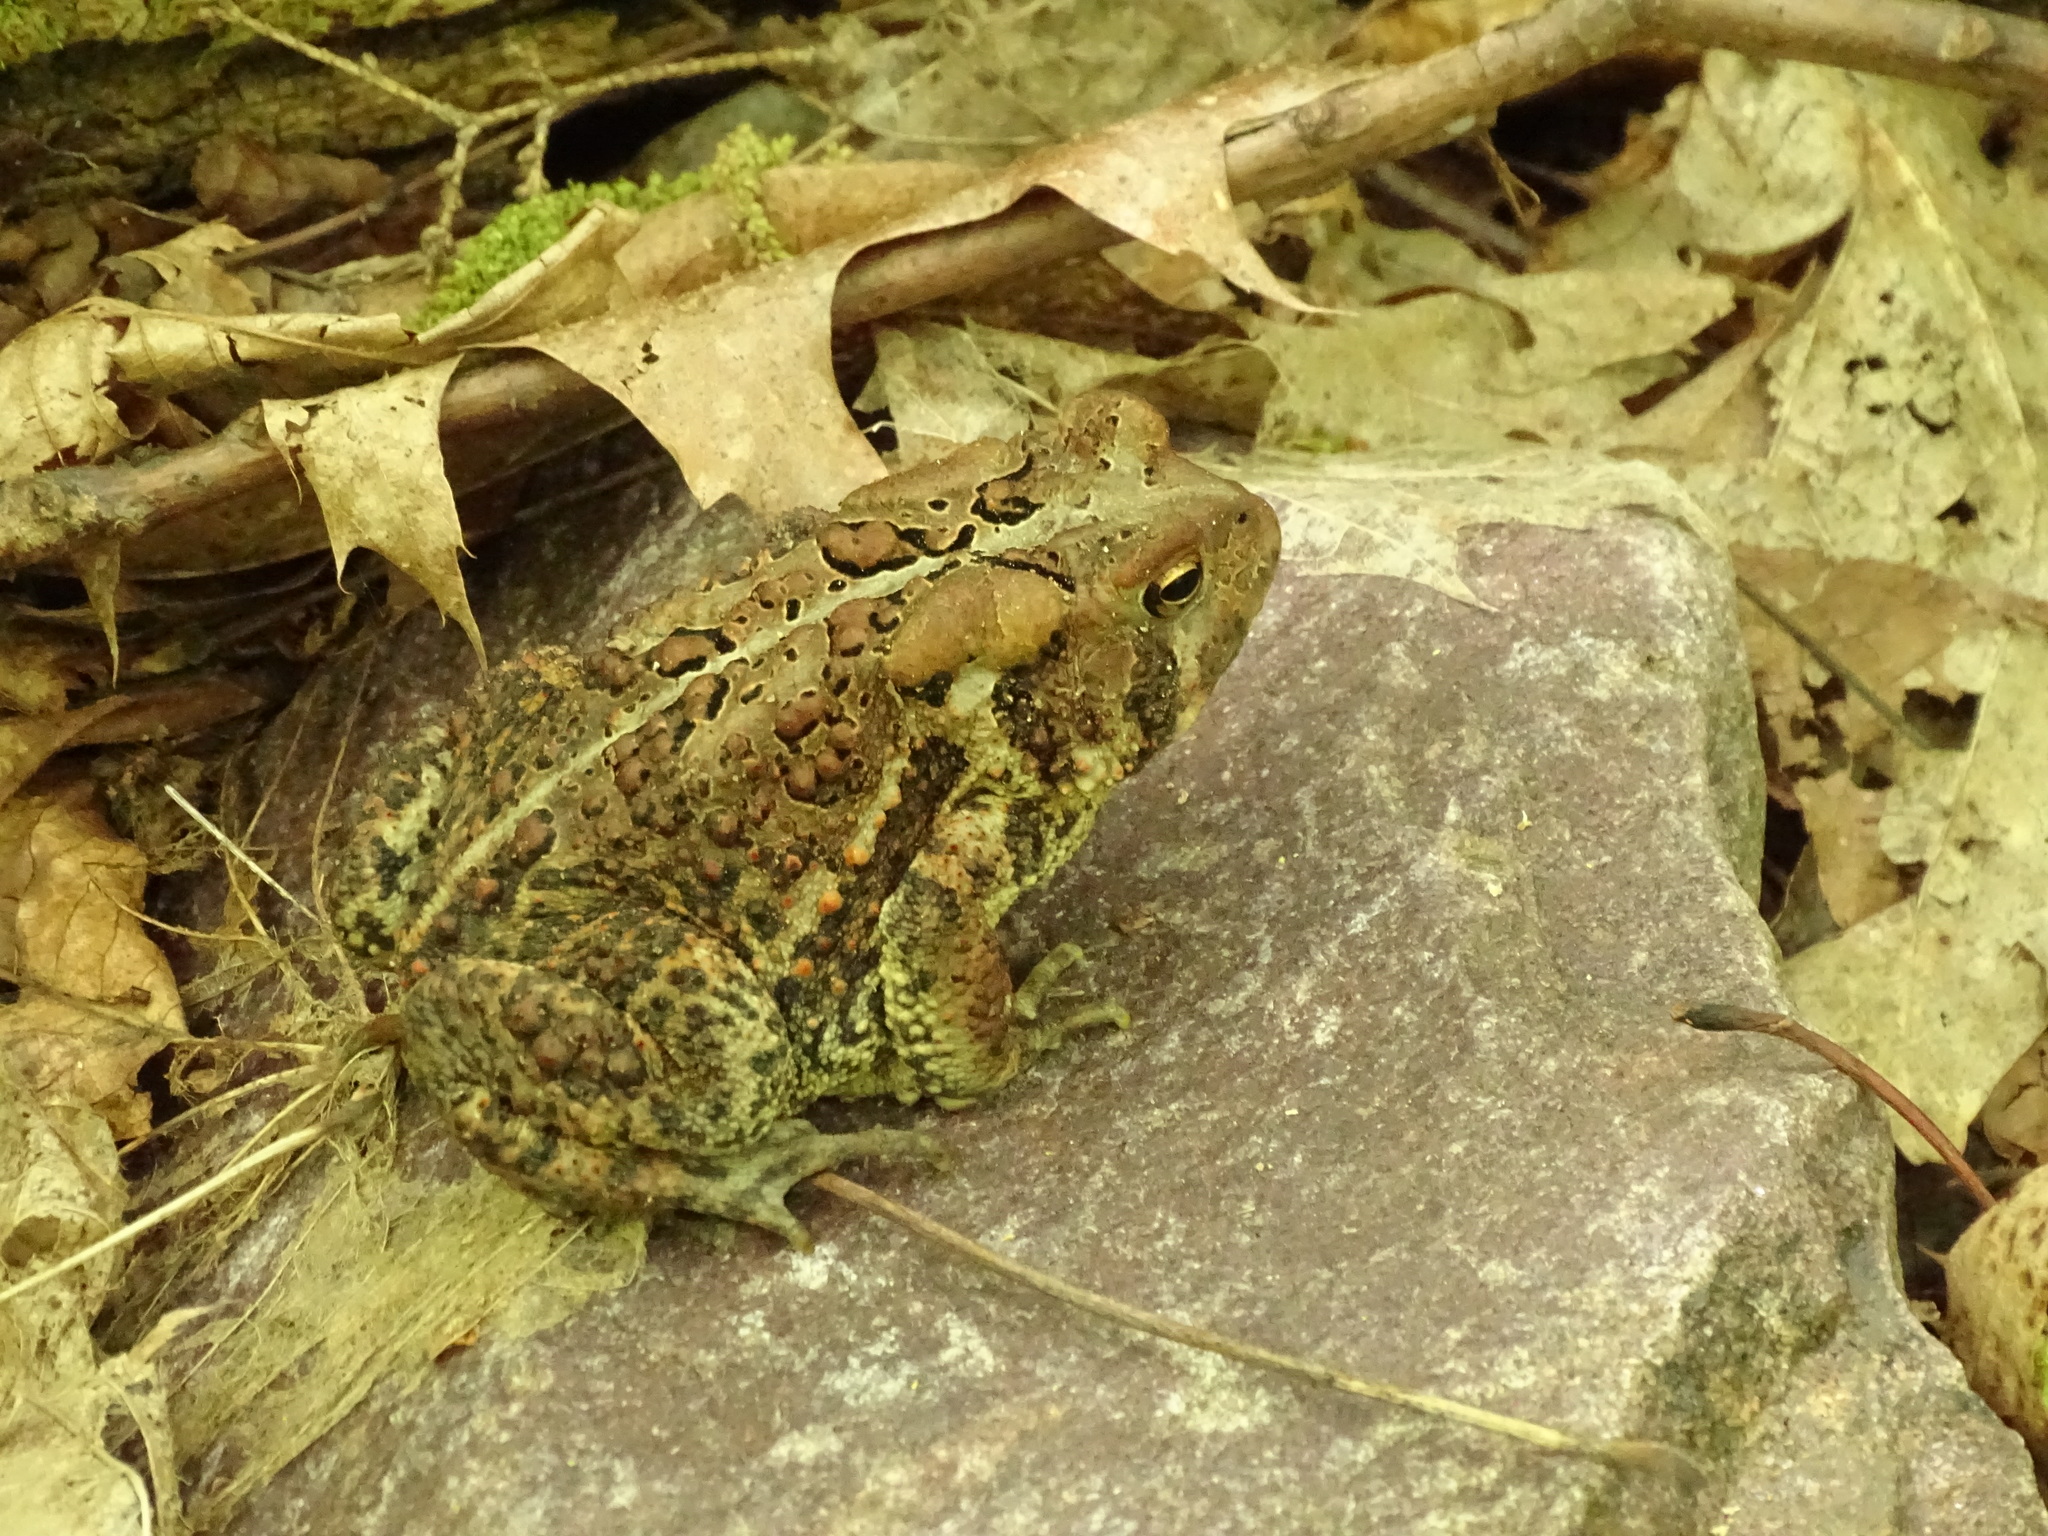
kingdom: Animalia
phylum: Chordata
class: Amphibia
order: Anura
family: Bufonidae
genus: Anaxyrus
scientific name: Anaxyrus americanus
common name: American toad
